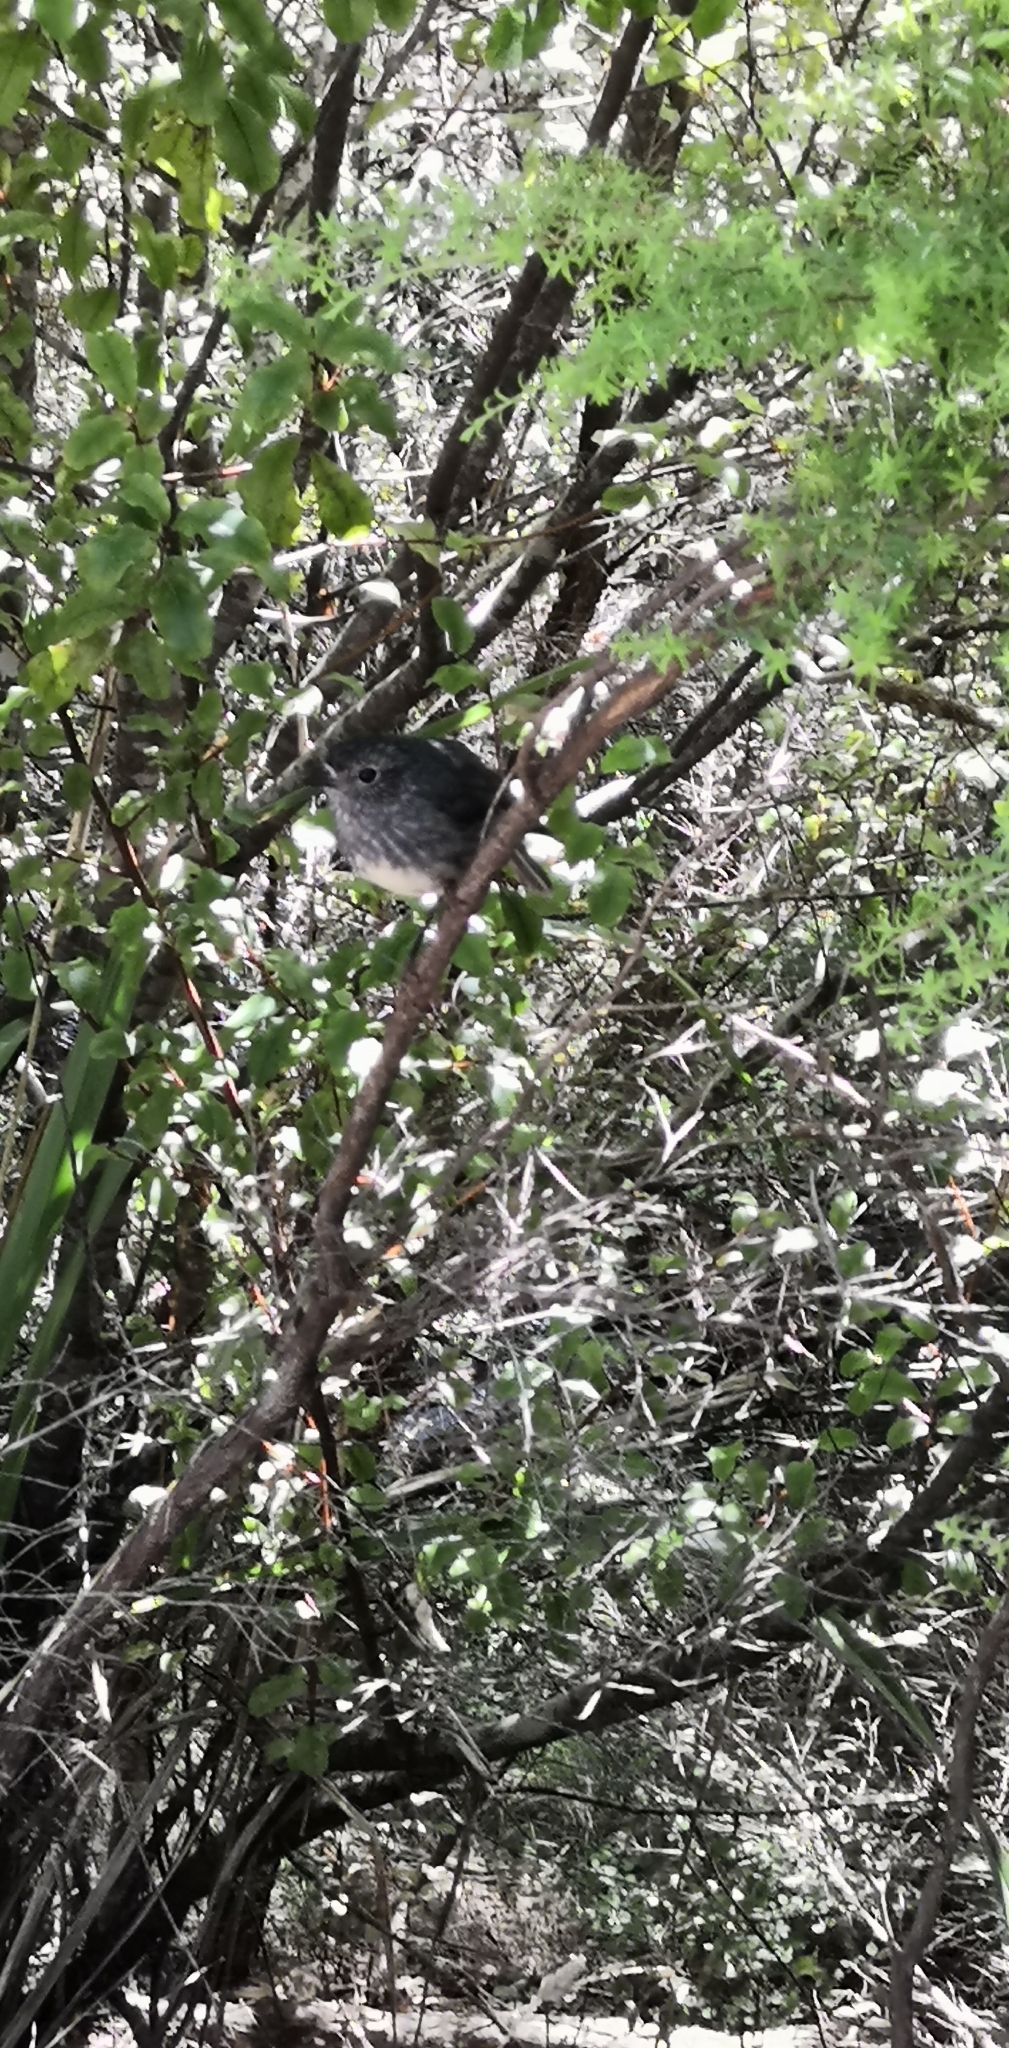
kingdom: Animalia
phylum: Chordata
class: Aves
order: Passeriformes
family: Petroicidae
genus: Petroica
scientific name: Petroica australis
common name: New zealand robin
